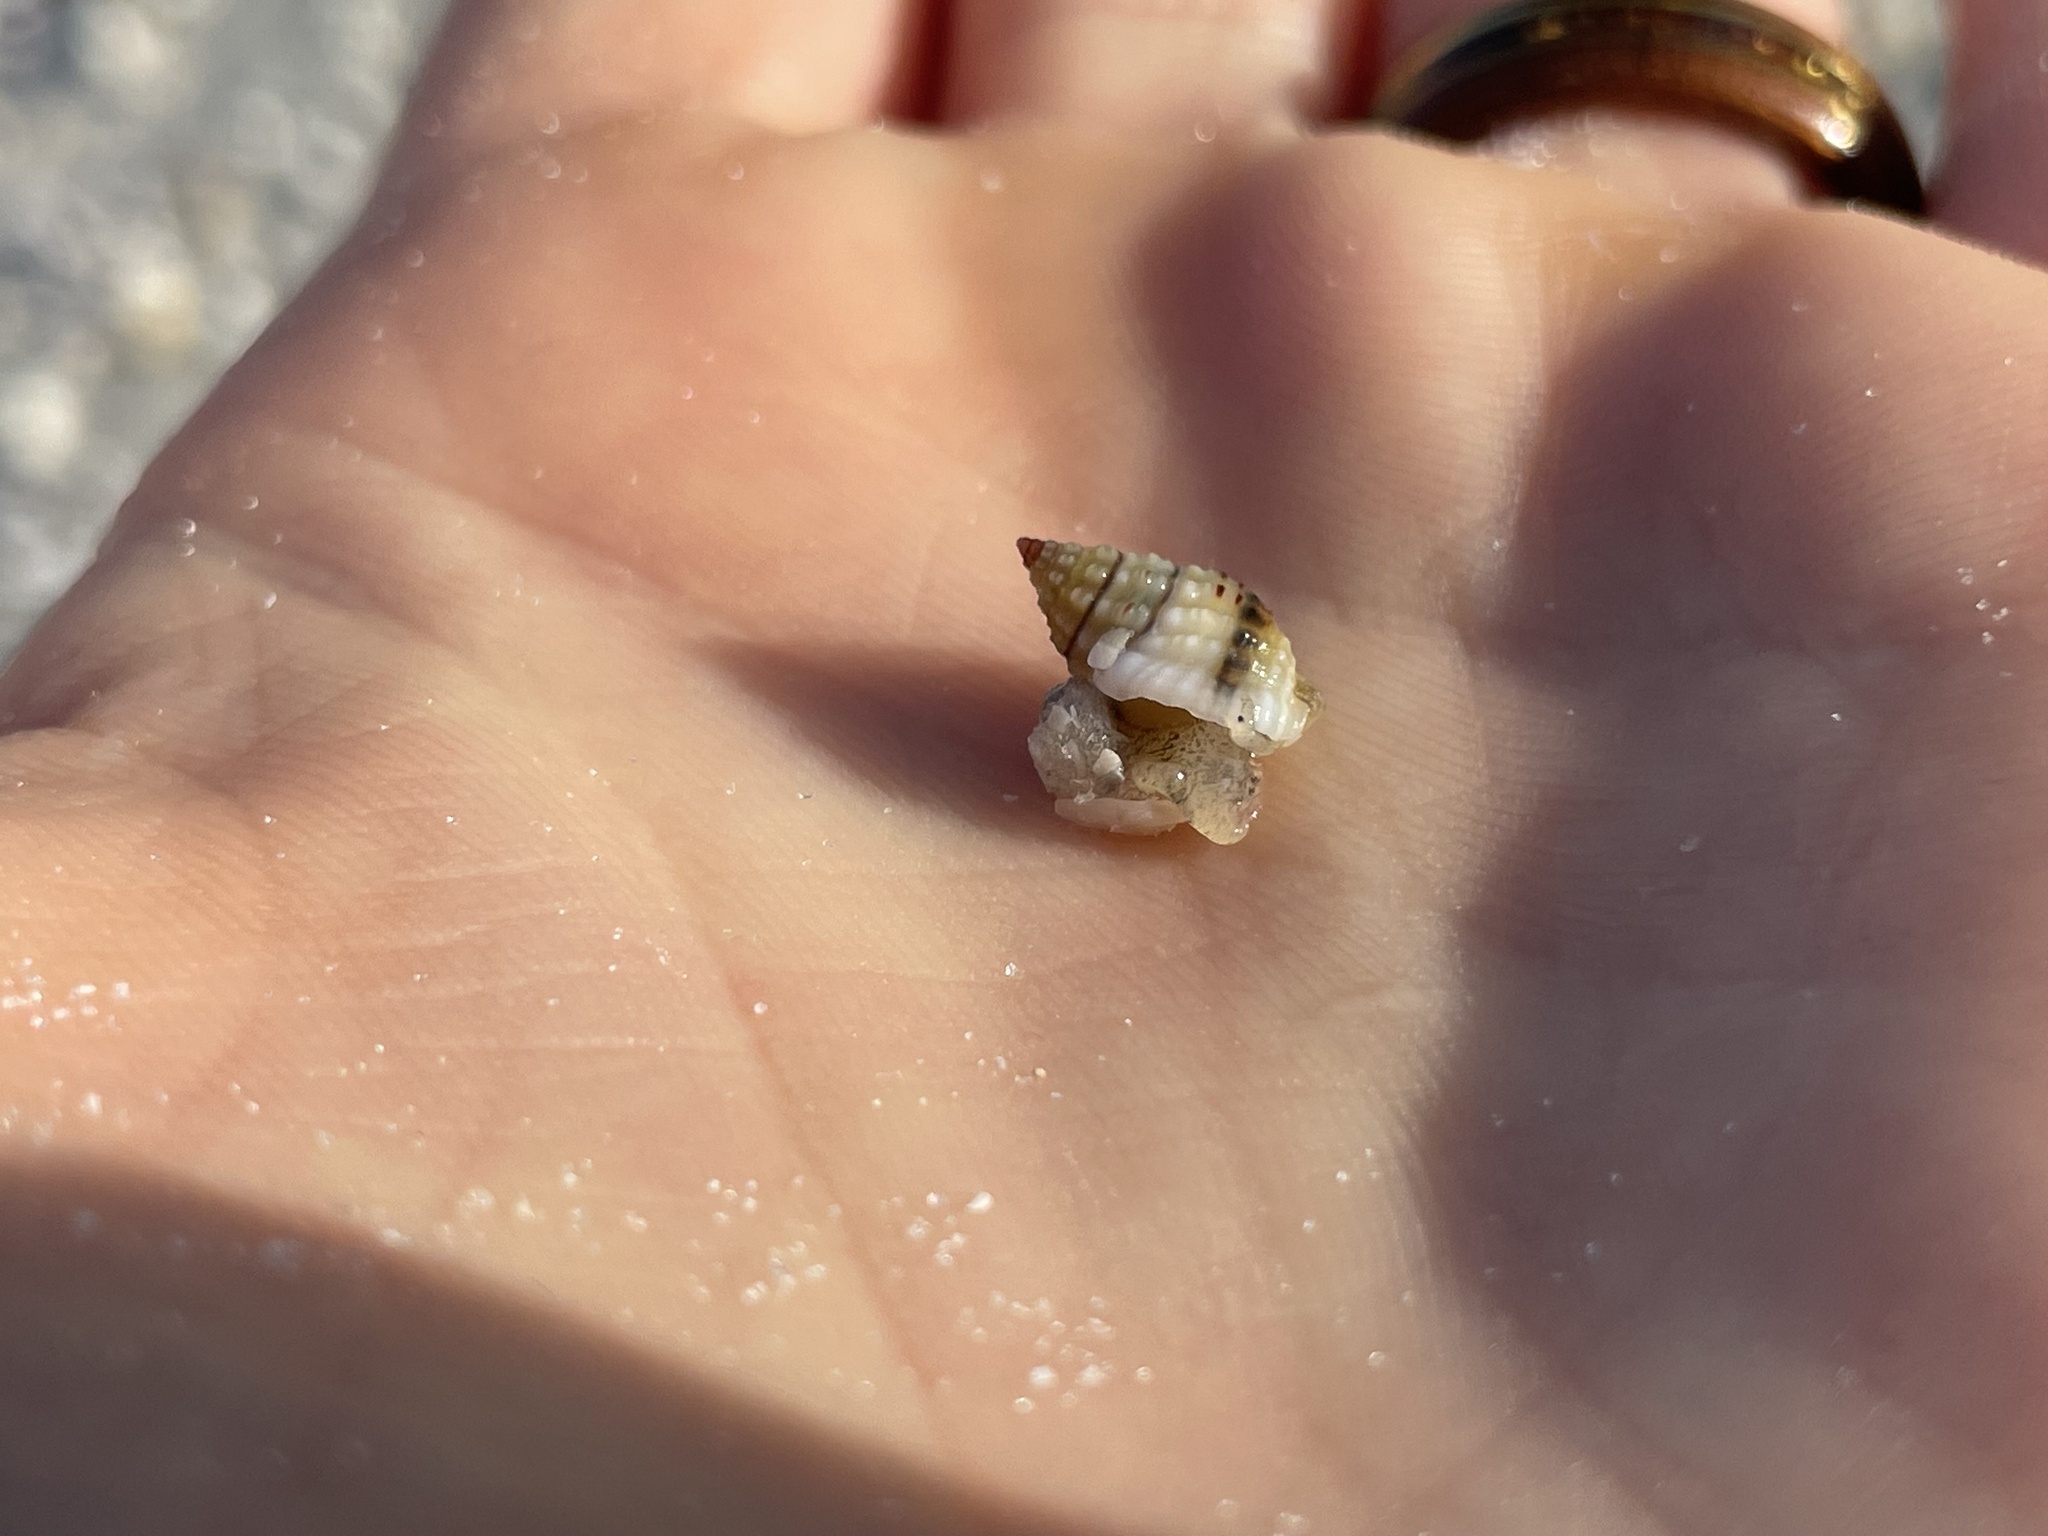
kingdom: Animalia
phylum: Mollusca
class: Gastropoda
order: Neogastropoda
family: Nassariidae
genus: Phrontis
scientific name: Phrontis vibex
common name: Bruised nassa
